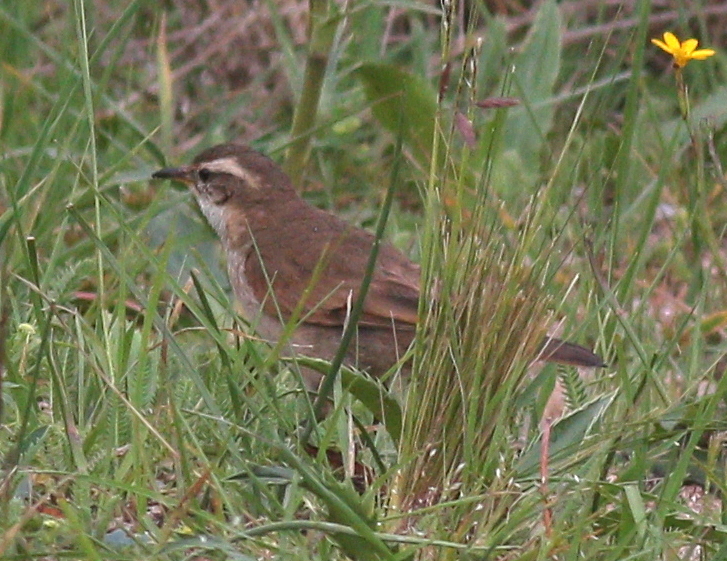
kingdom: Animalia
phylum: Chordata
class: Aves
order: Passeriformes
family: Furnariidae
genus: Cinclodes
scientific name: Cinclodes comechingonus
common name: Cordoba cinclodes
